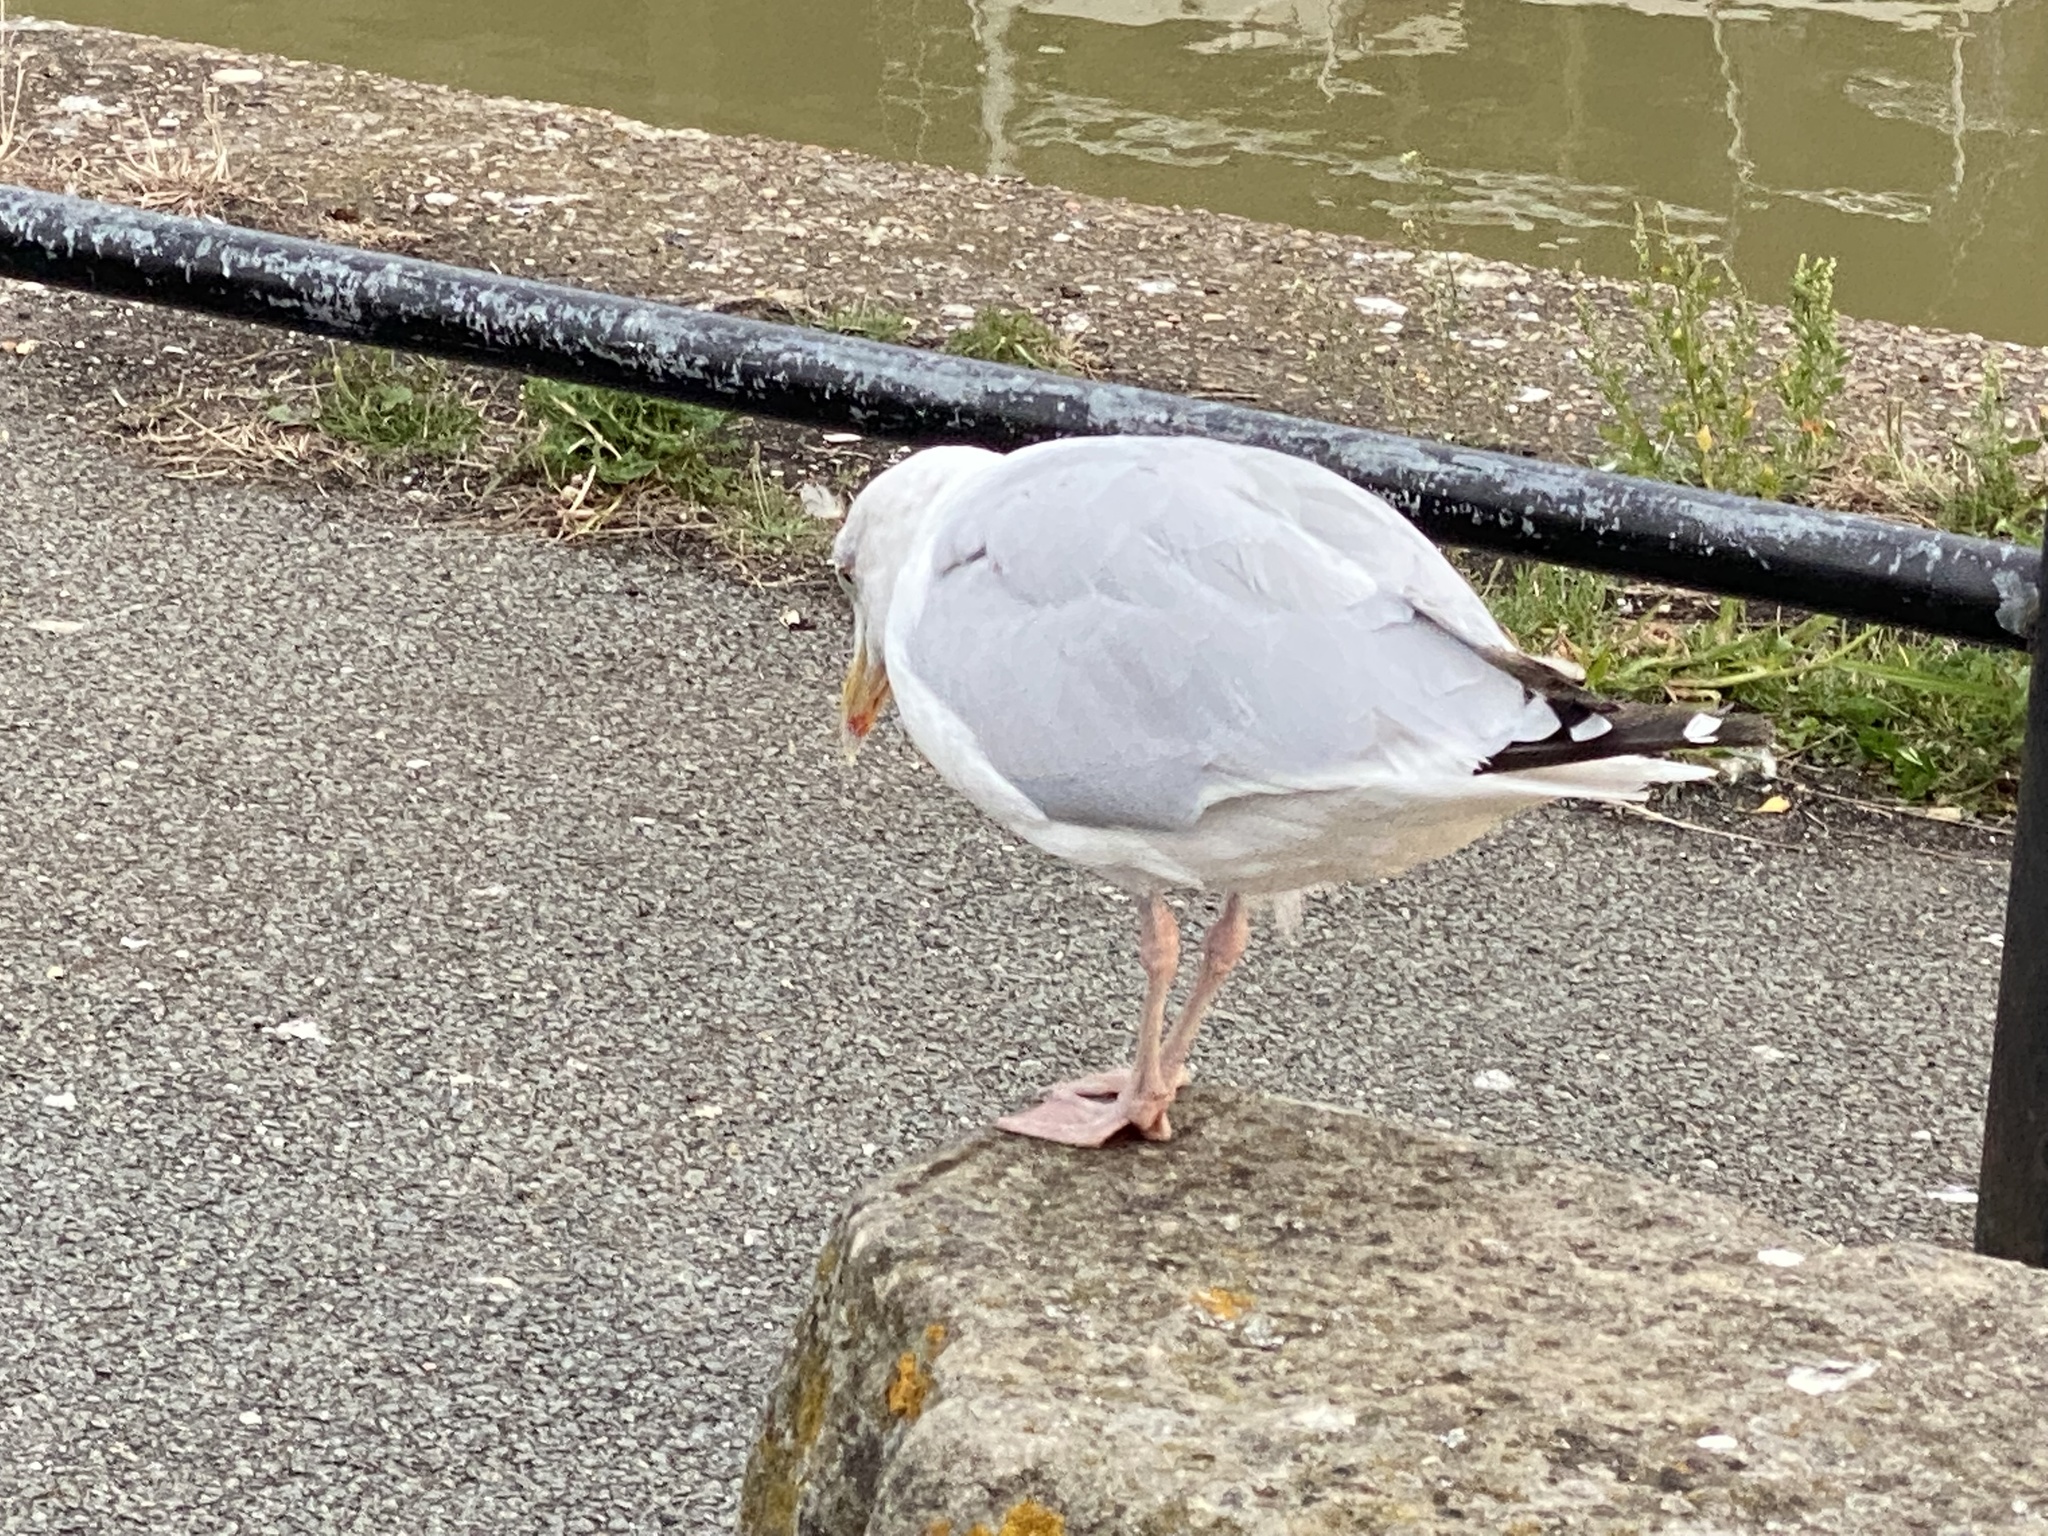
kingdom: Animalia
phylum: Chordata
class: Aves
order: Charadriiformes
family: Laridae
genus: Larus
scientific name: Larus argentatus
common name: Herring gull
